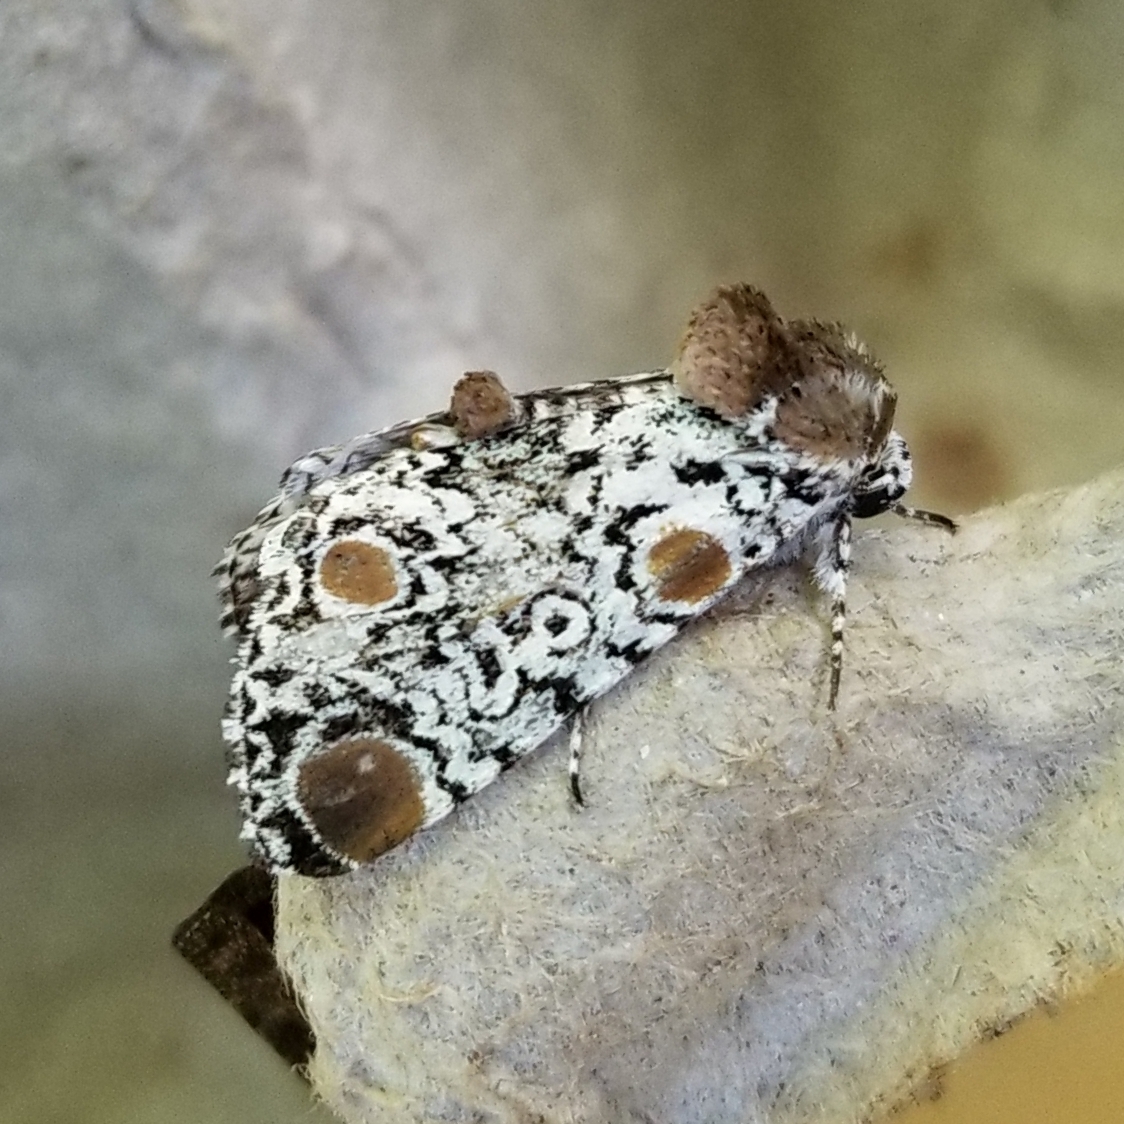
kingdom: Animalia
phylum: Arthropoda
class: Insecta
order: Lepidoptera
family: Noctuidae
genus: Harrisimemna
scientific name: Harrisimemna trisignata
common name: Harris threespot
